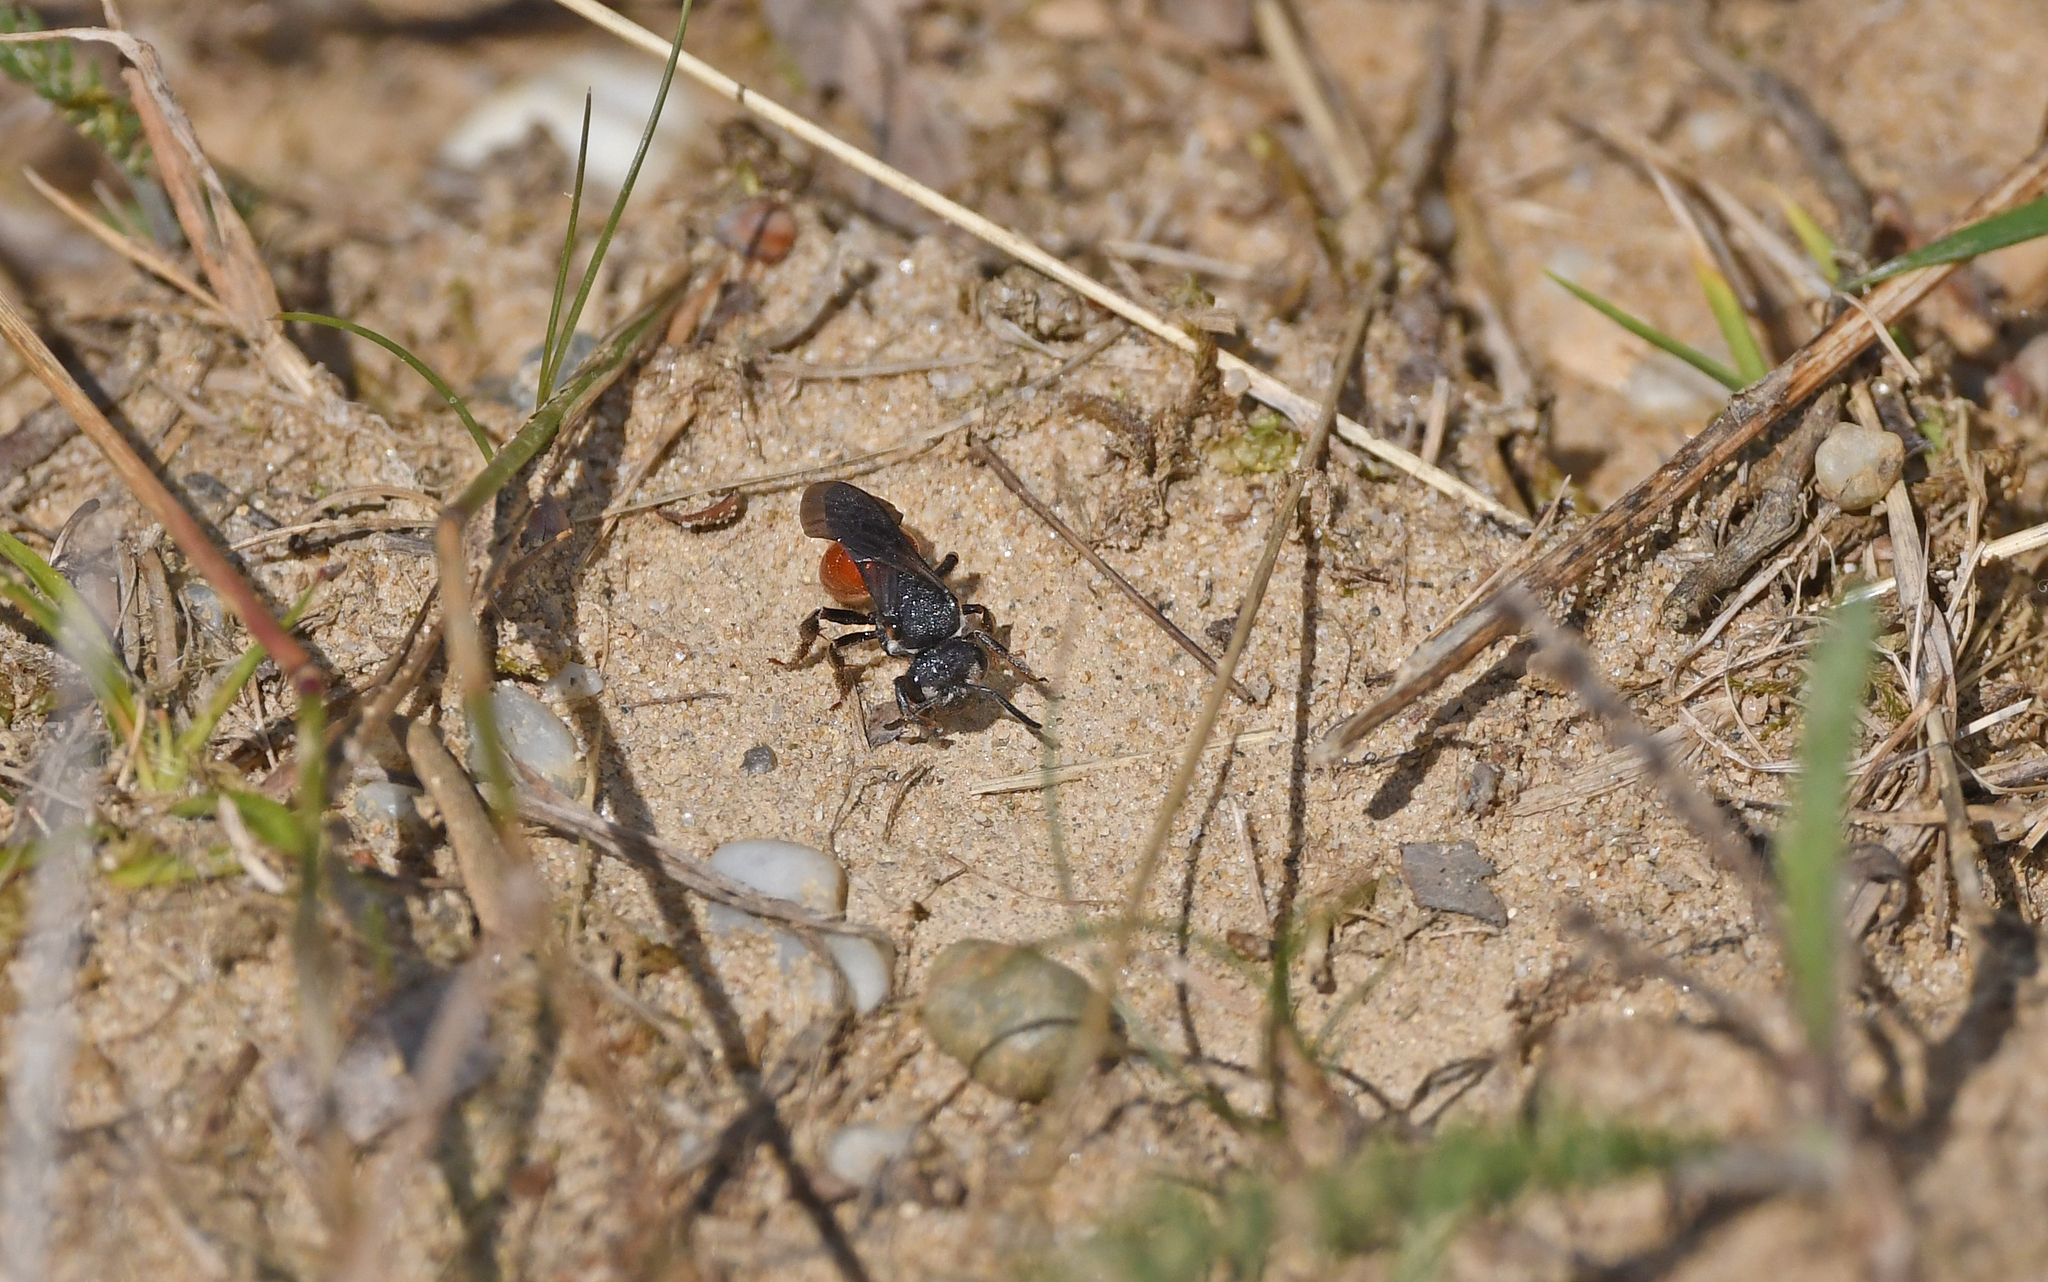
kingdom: Animalia
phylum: Arthropoda
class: Insecta
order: Hymenoptera
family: Halictidae
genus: Sphecodes
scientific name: Sphecodes albilabris
